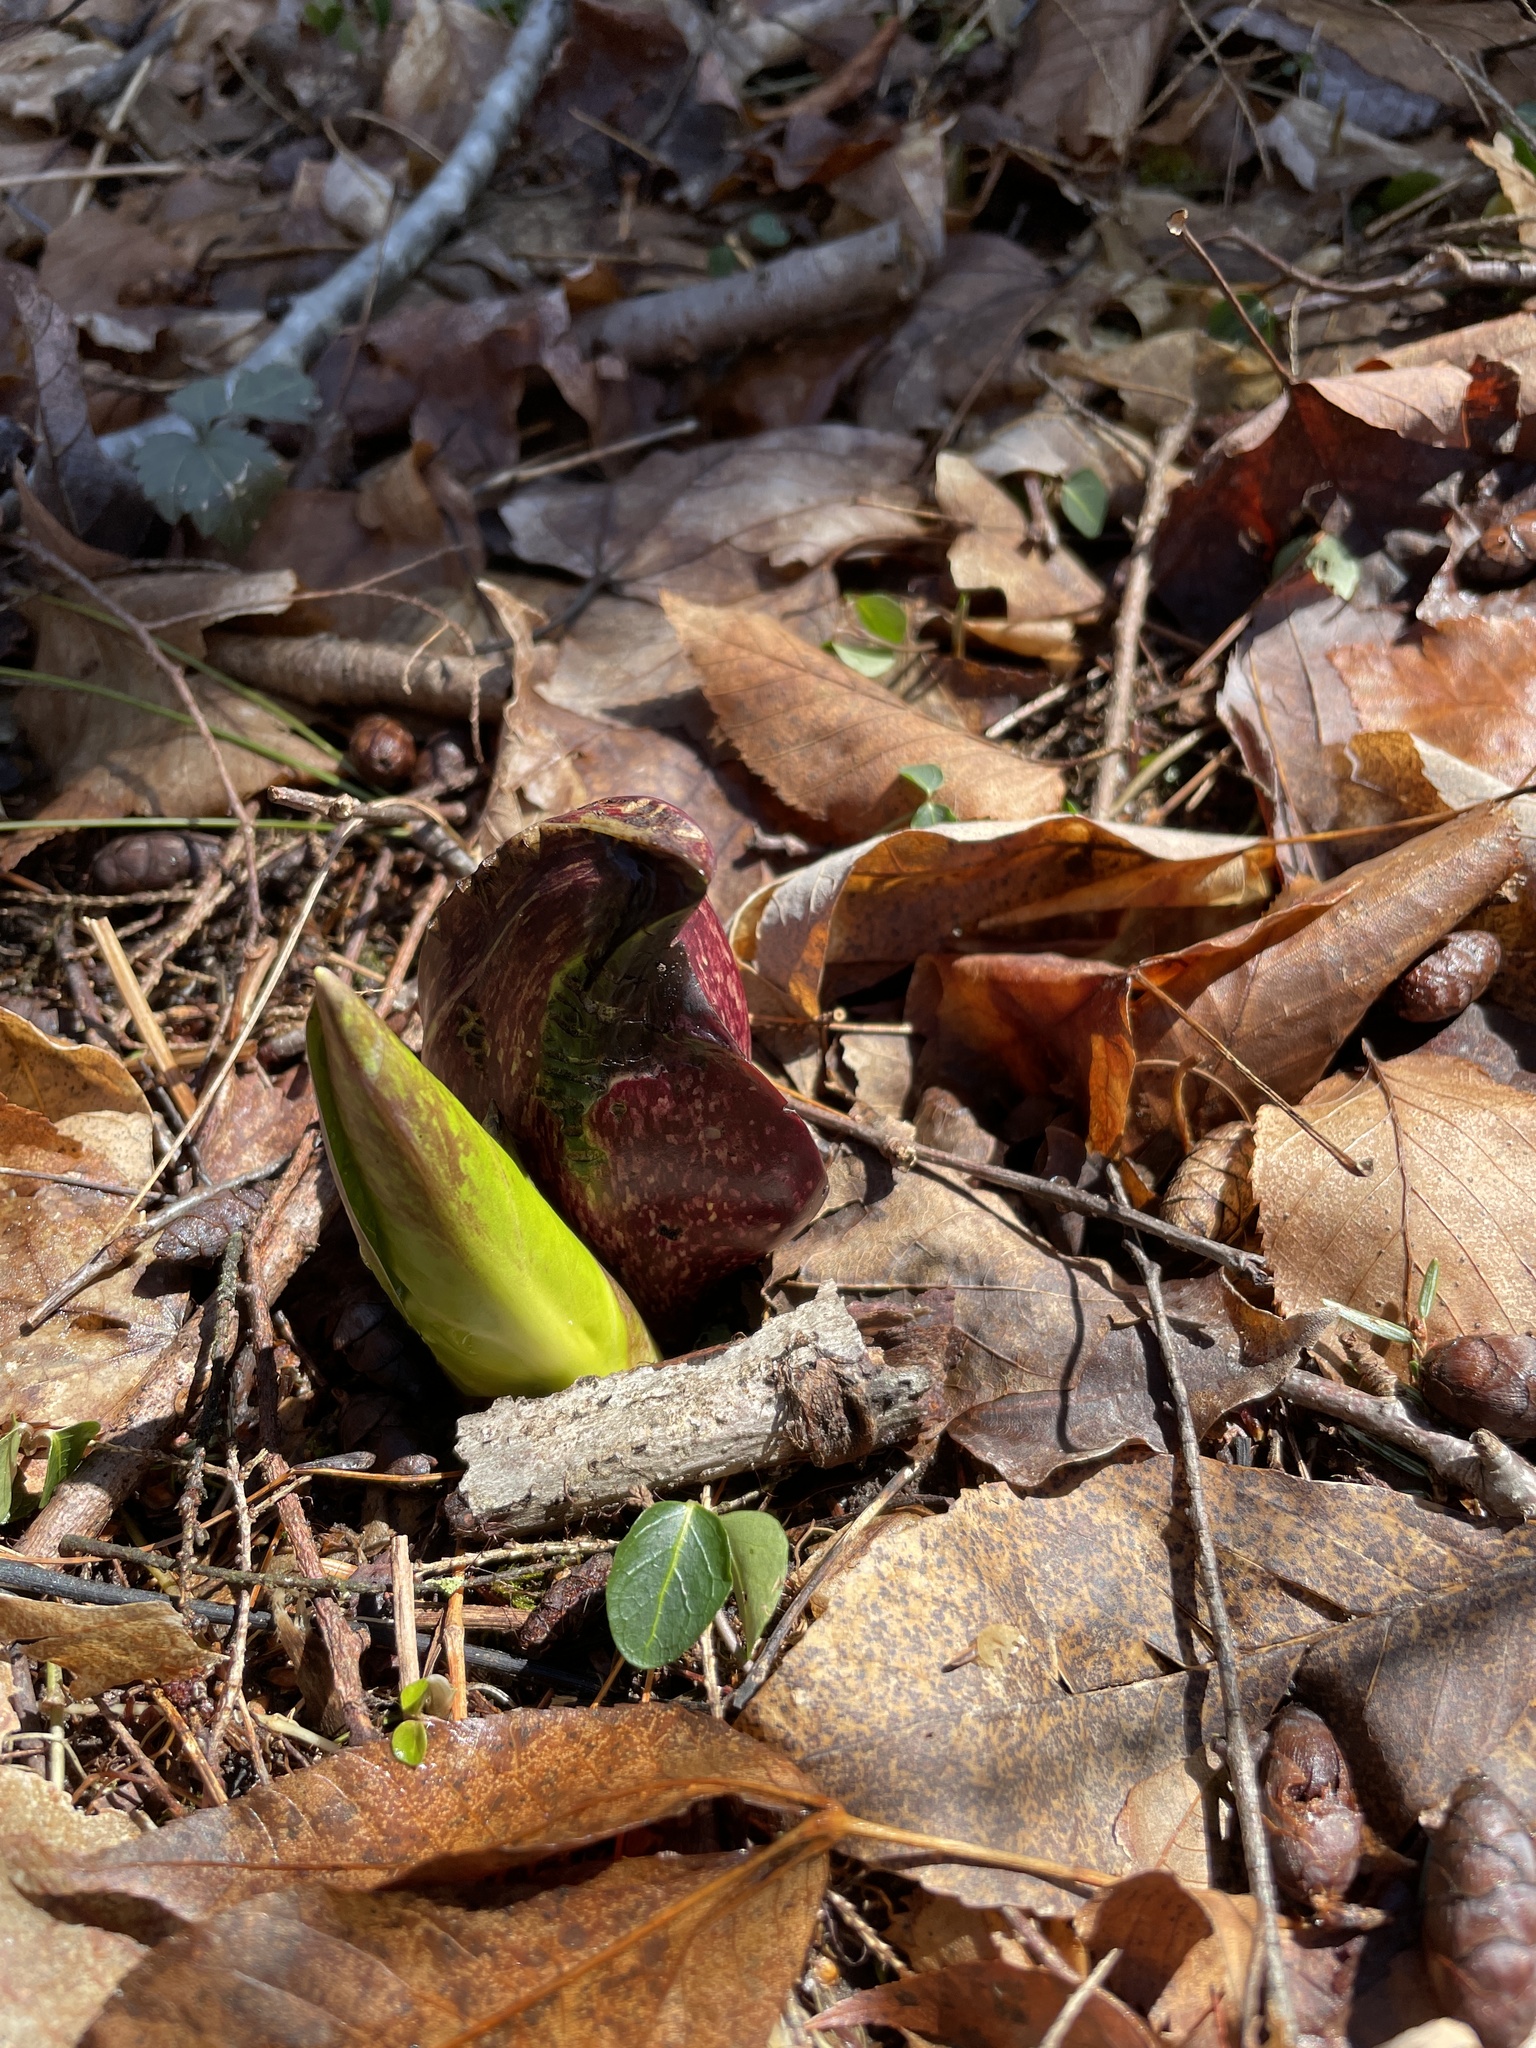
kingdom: Plantae
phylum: Tracheophyta
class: Liliopsida
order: Alismatales
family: Araceae
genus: Symplocarpus
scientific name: Symplocarpus foetidus
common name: Eastern skunk cabbage
